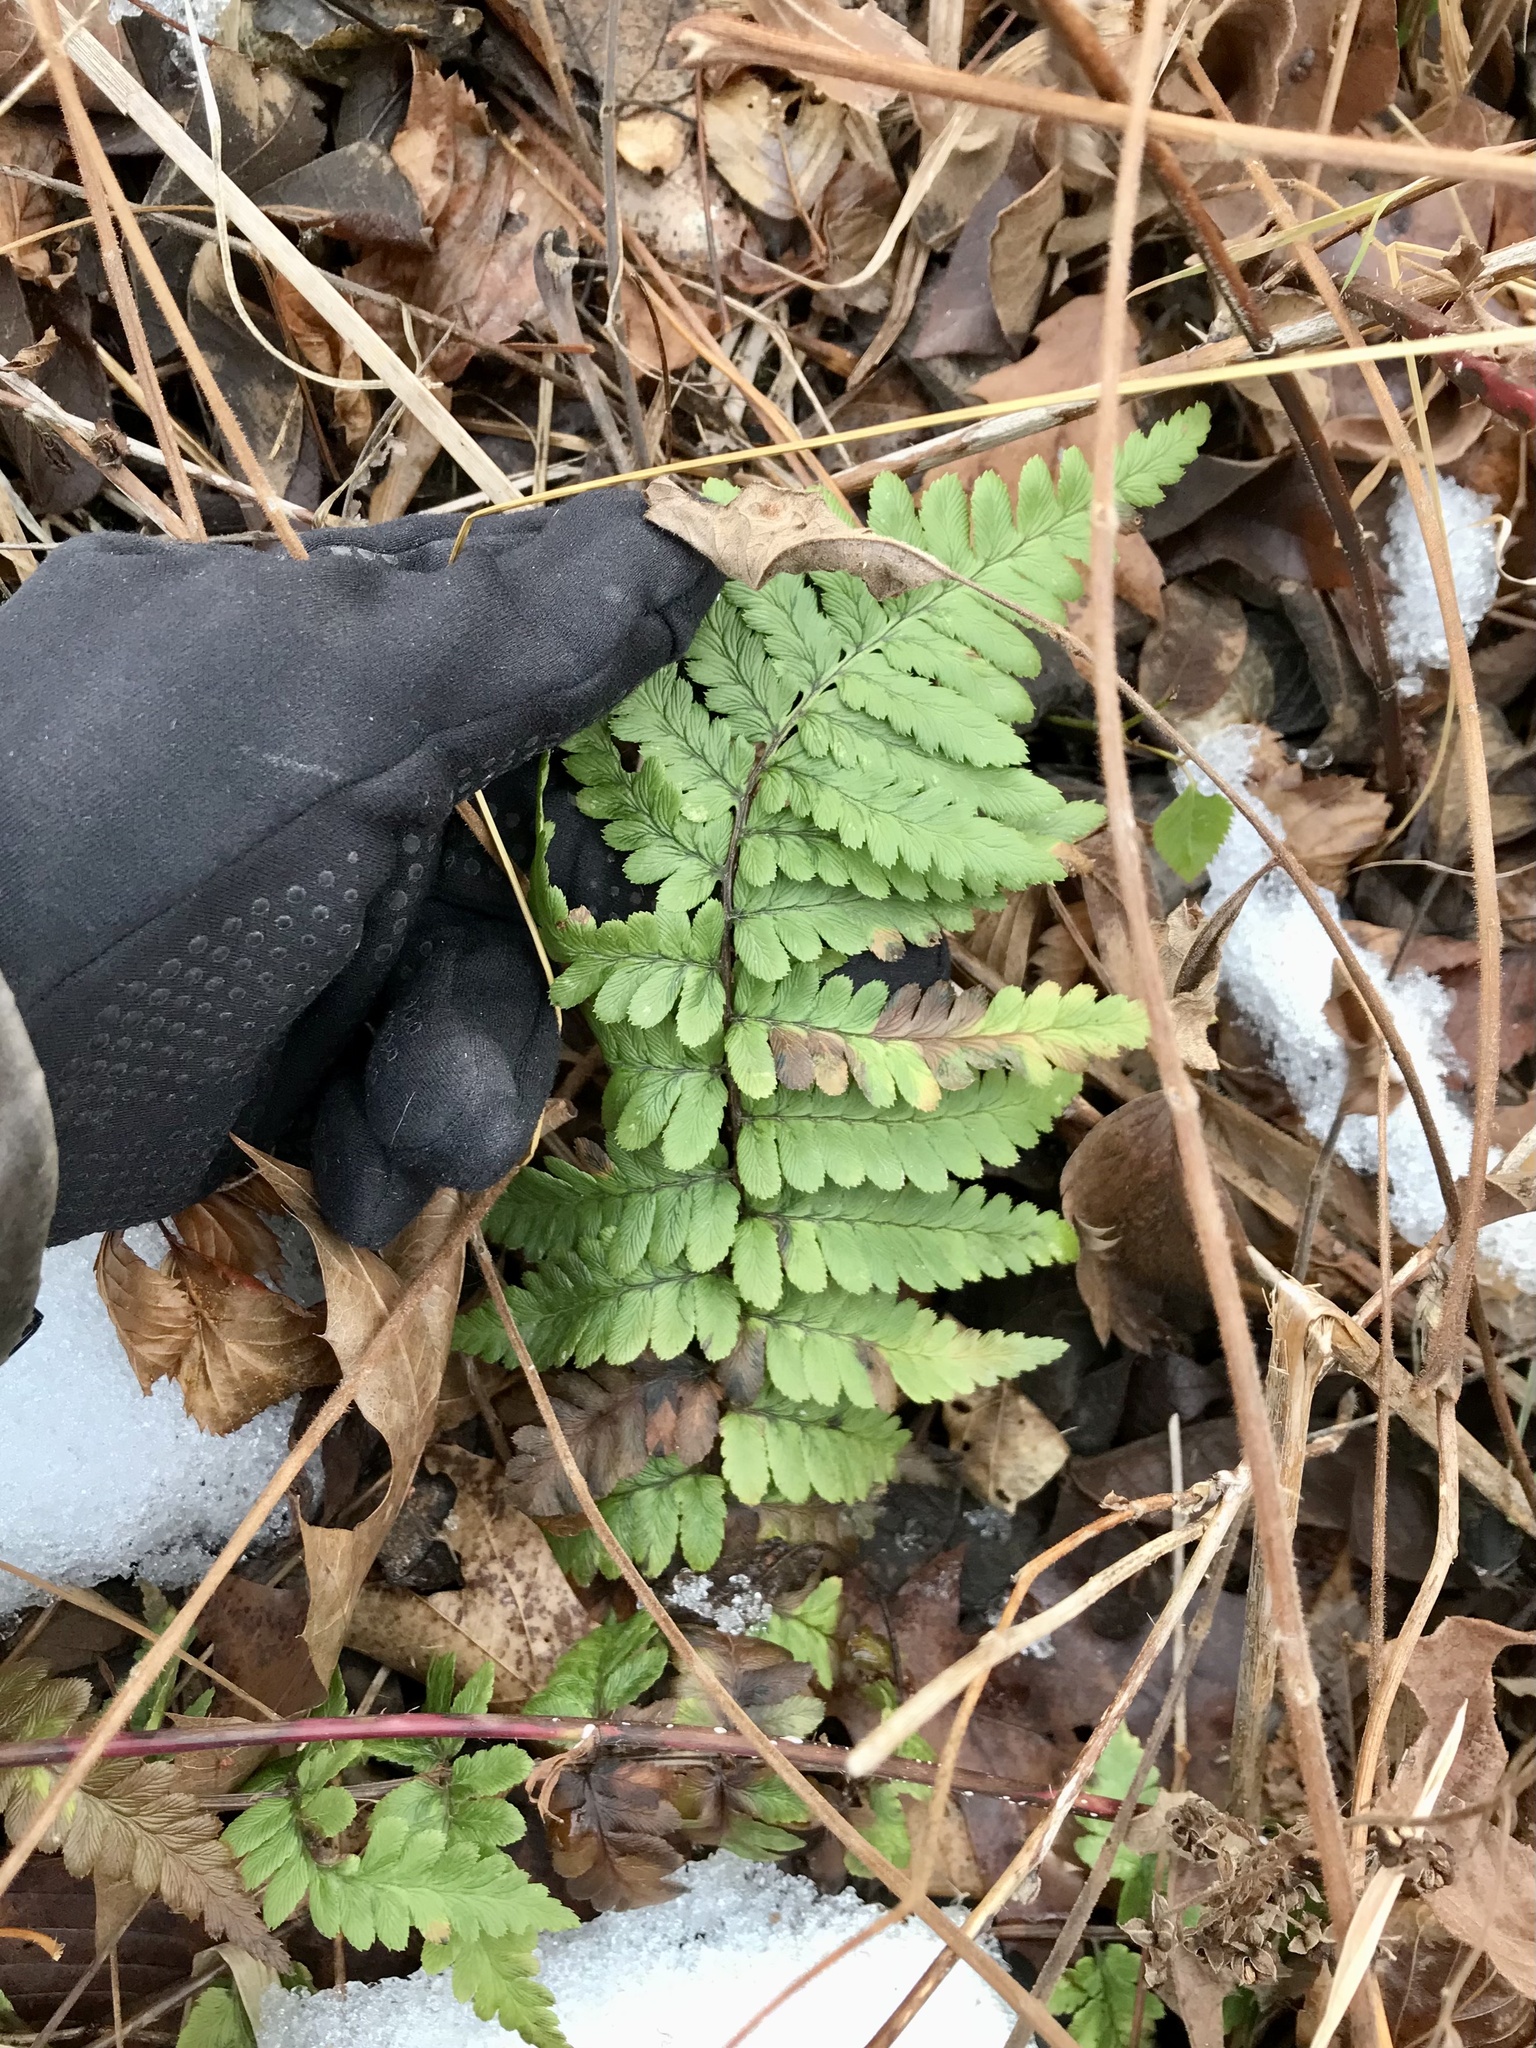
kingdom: Plantae
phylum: Tracheophyta
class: Polypodiopsida
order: Polypodiales
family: Dryopteridaceae
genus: Dryopteris
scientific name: Dryopteris cristata
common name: Crested wood fern
